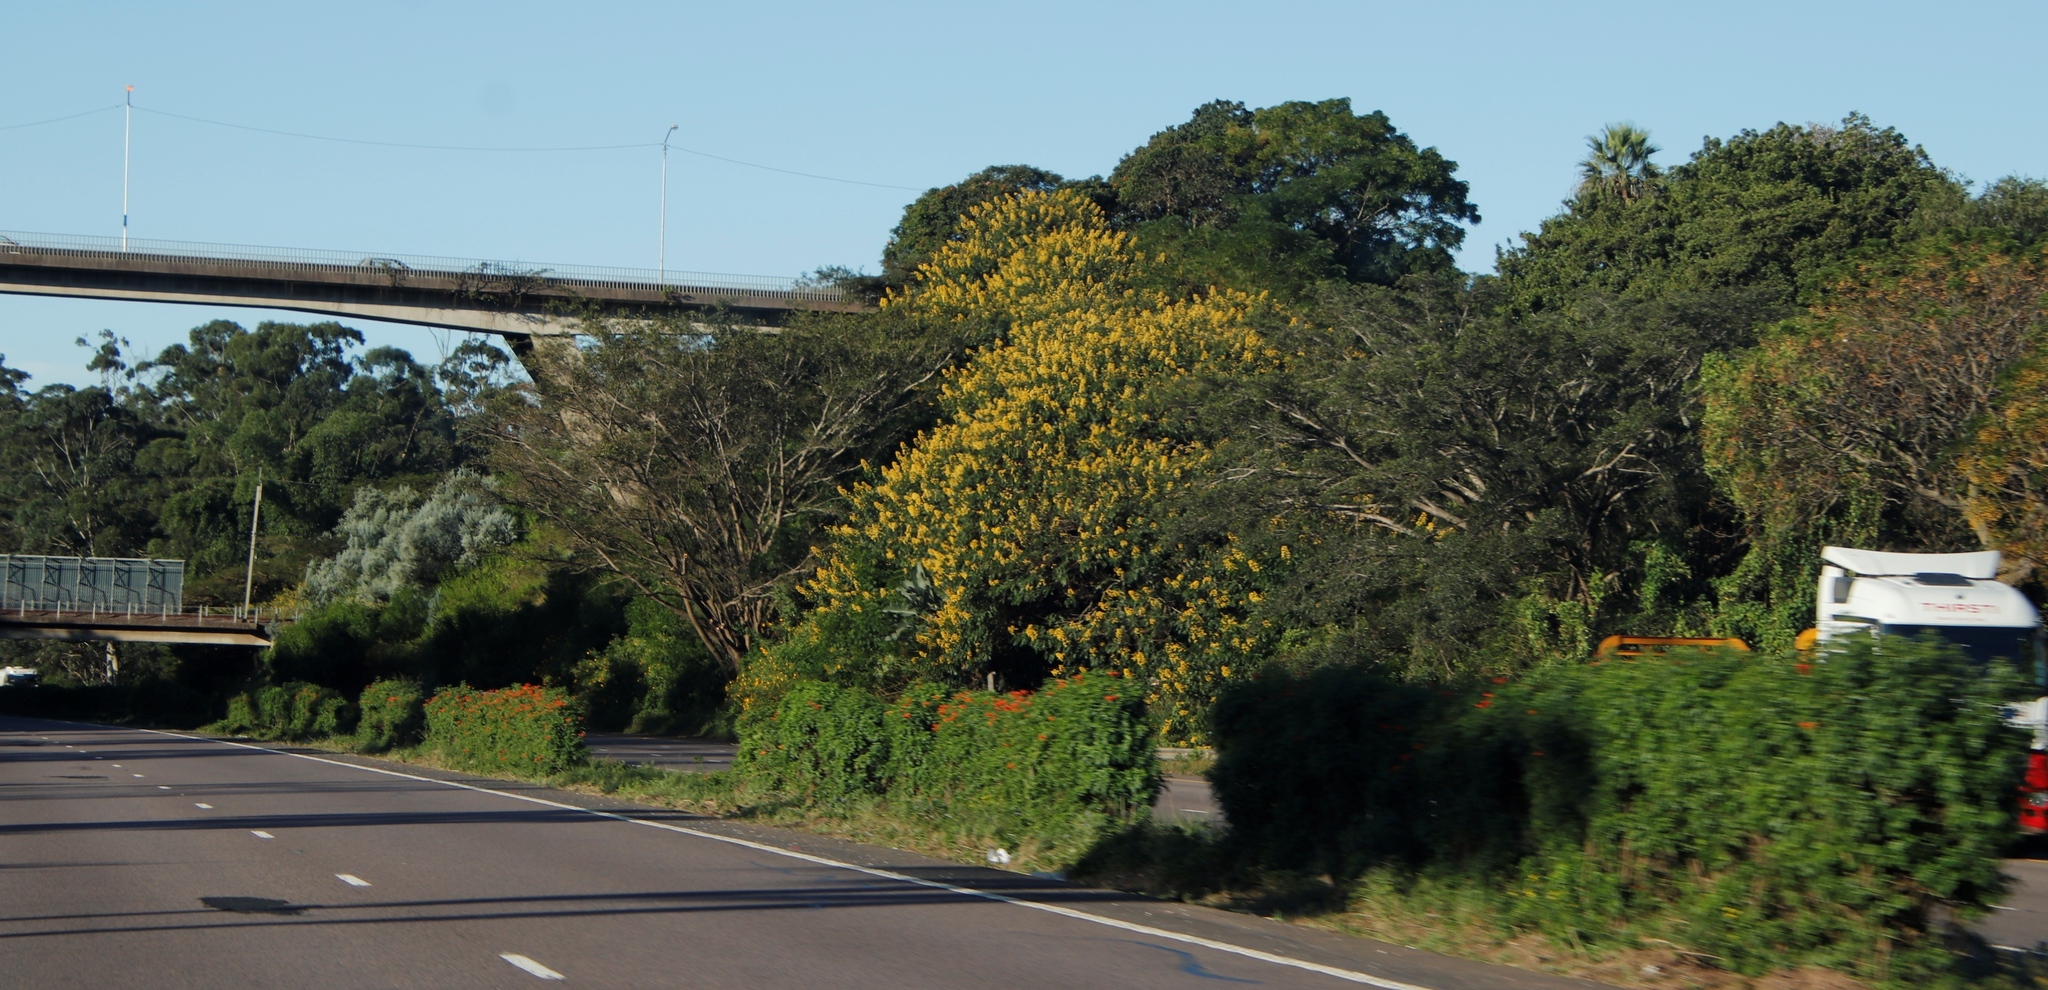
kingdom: Plantae
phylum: Tracheophyta
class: Magnoliopsida
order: Fabales
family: Fabaceae
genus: Senna
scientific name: Senna didymobotrya
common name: African senna
